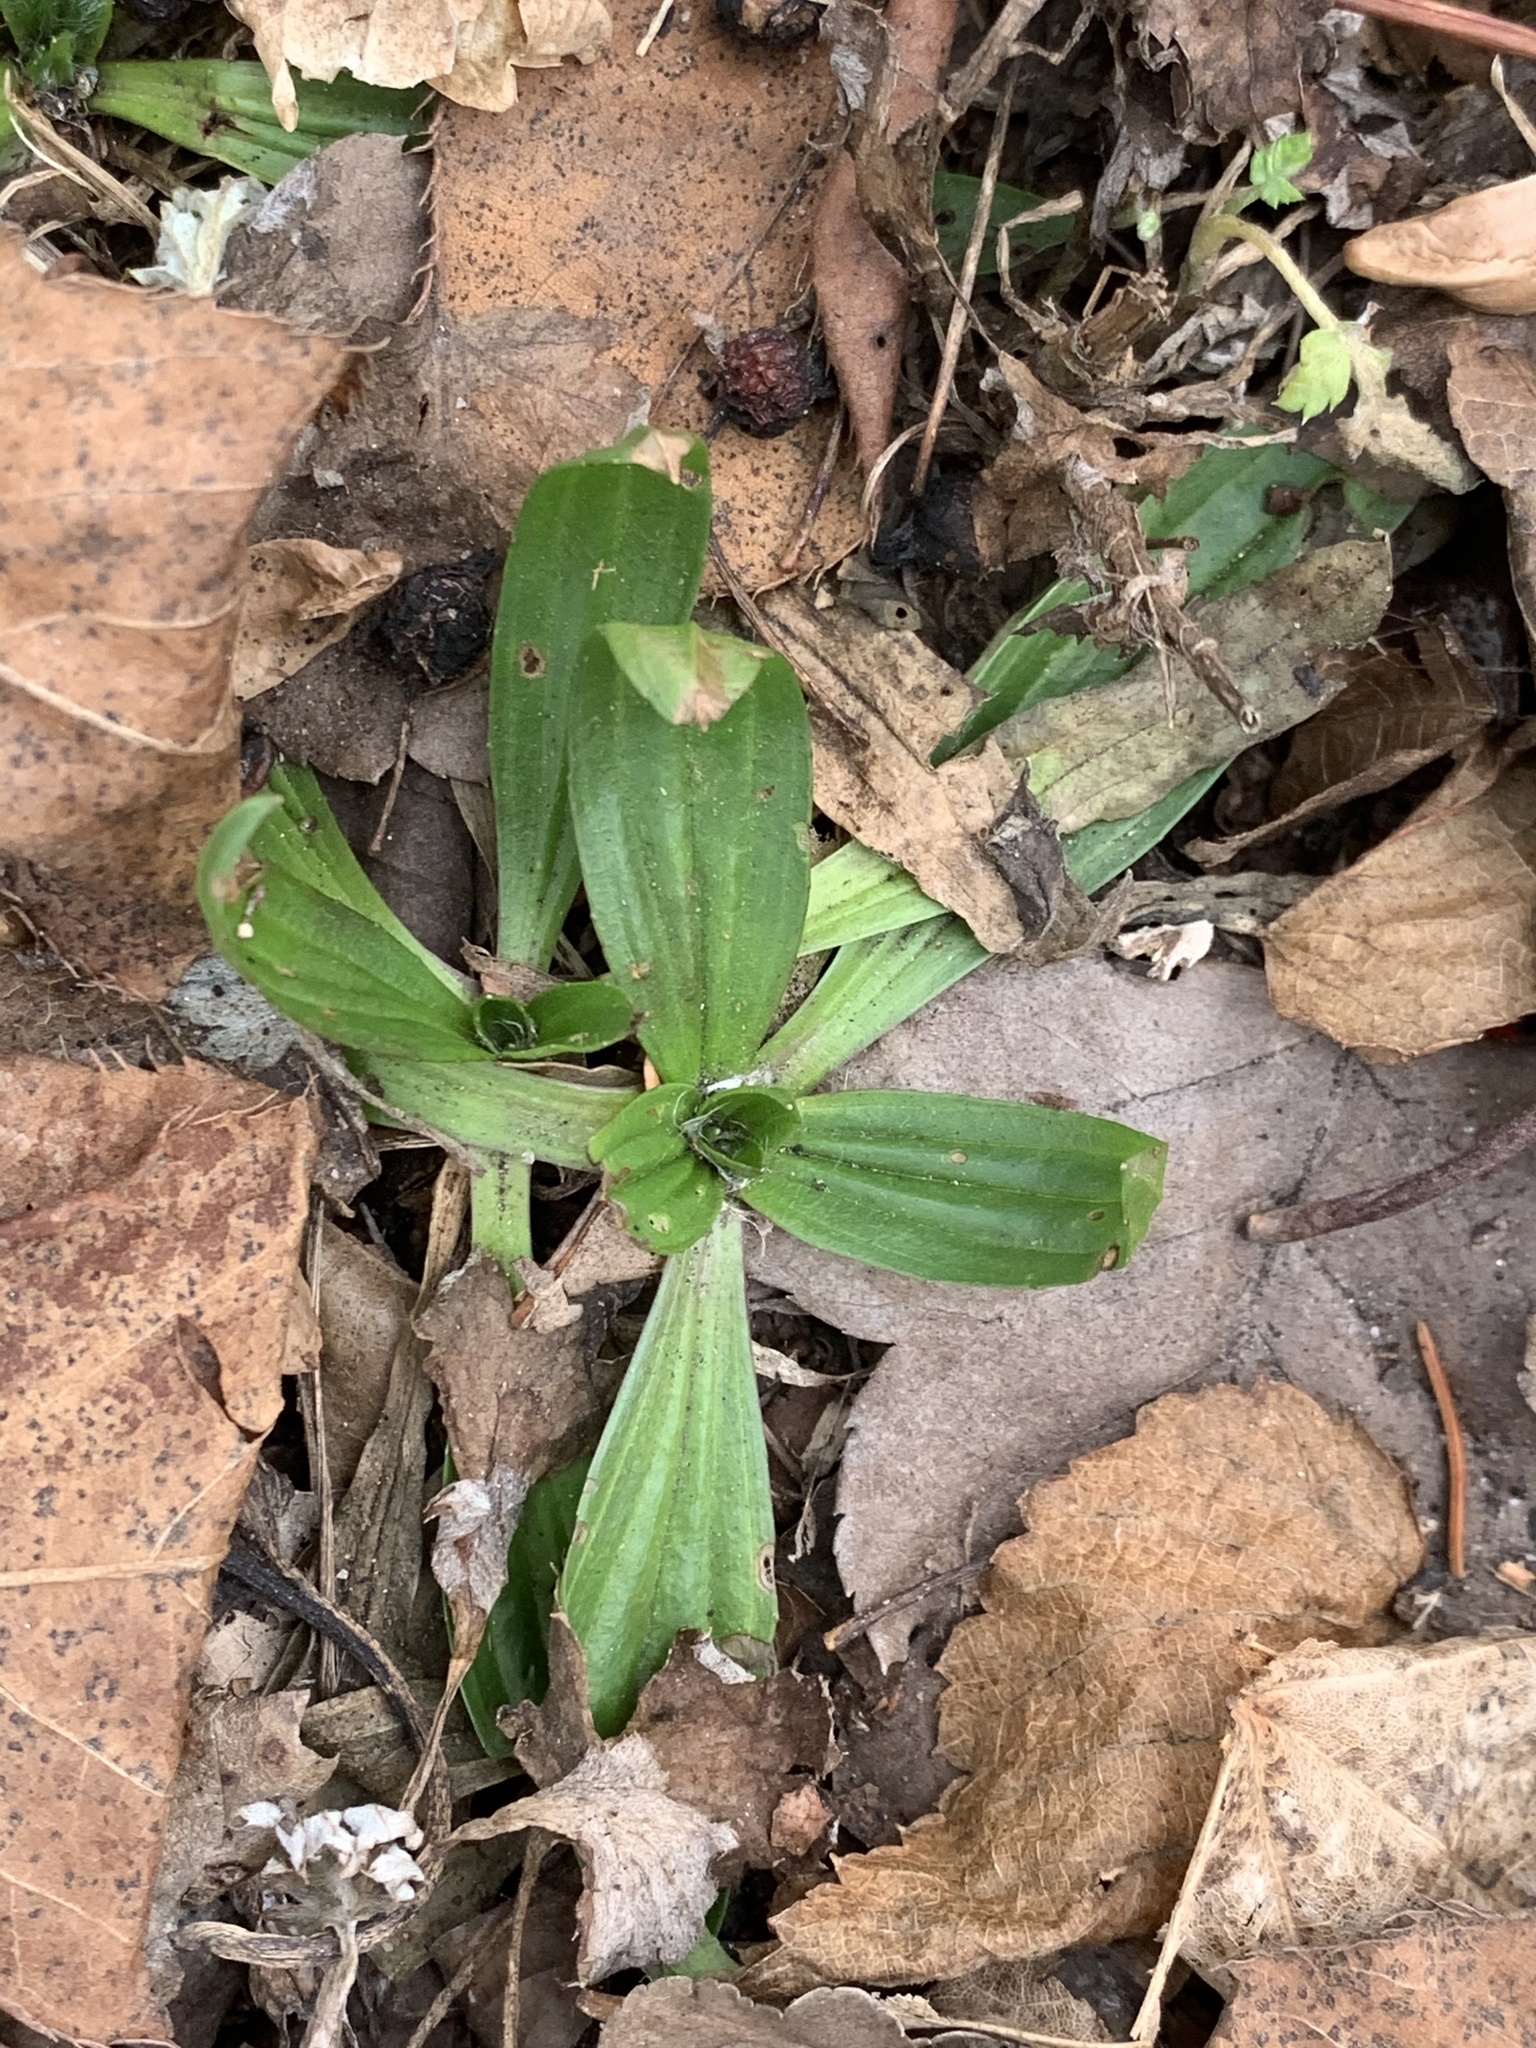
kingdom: Plantae
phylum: Tracheophyta
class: Magnoliopsida
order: Lamiales
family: Plantaginaceae
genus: Plantago
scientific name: Plantago lanceolata
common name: Ribwort plantain
